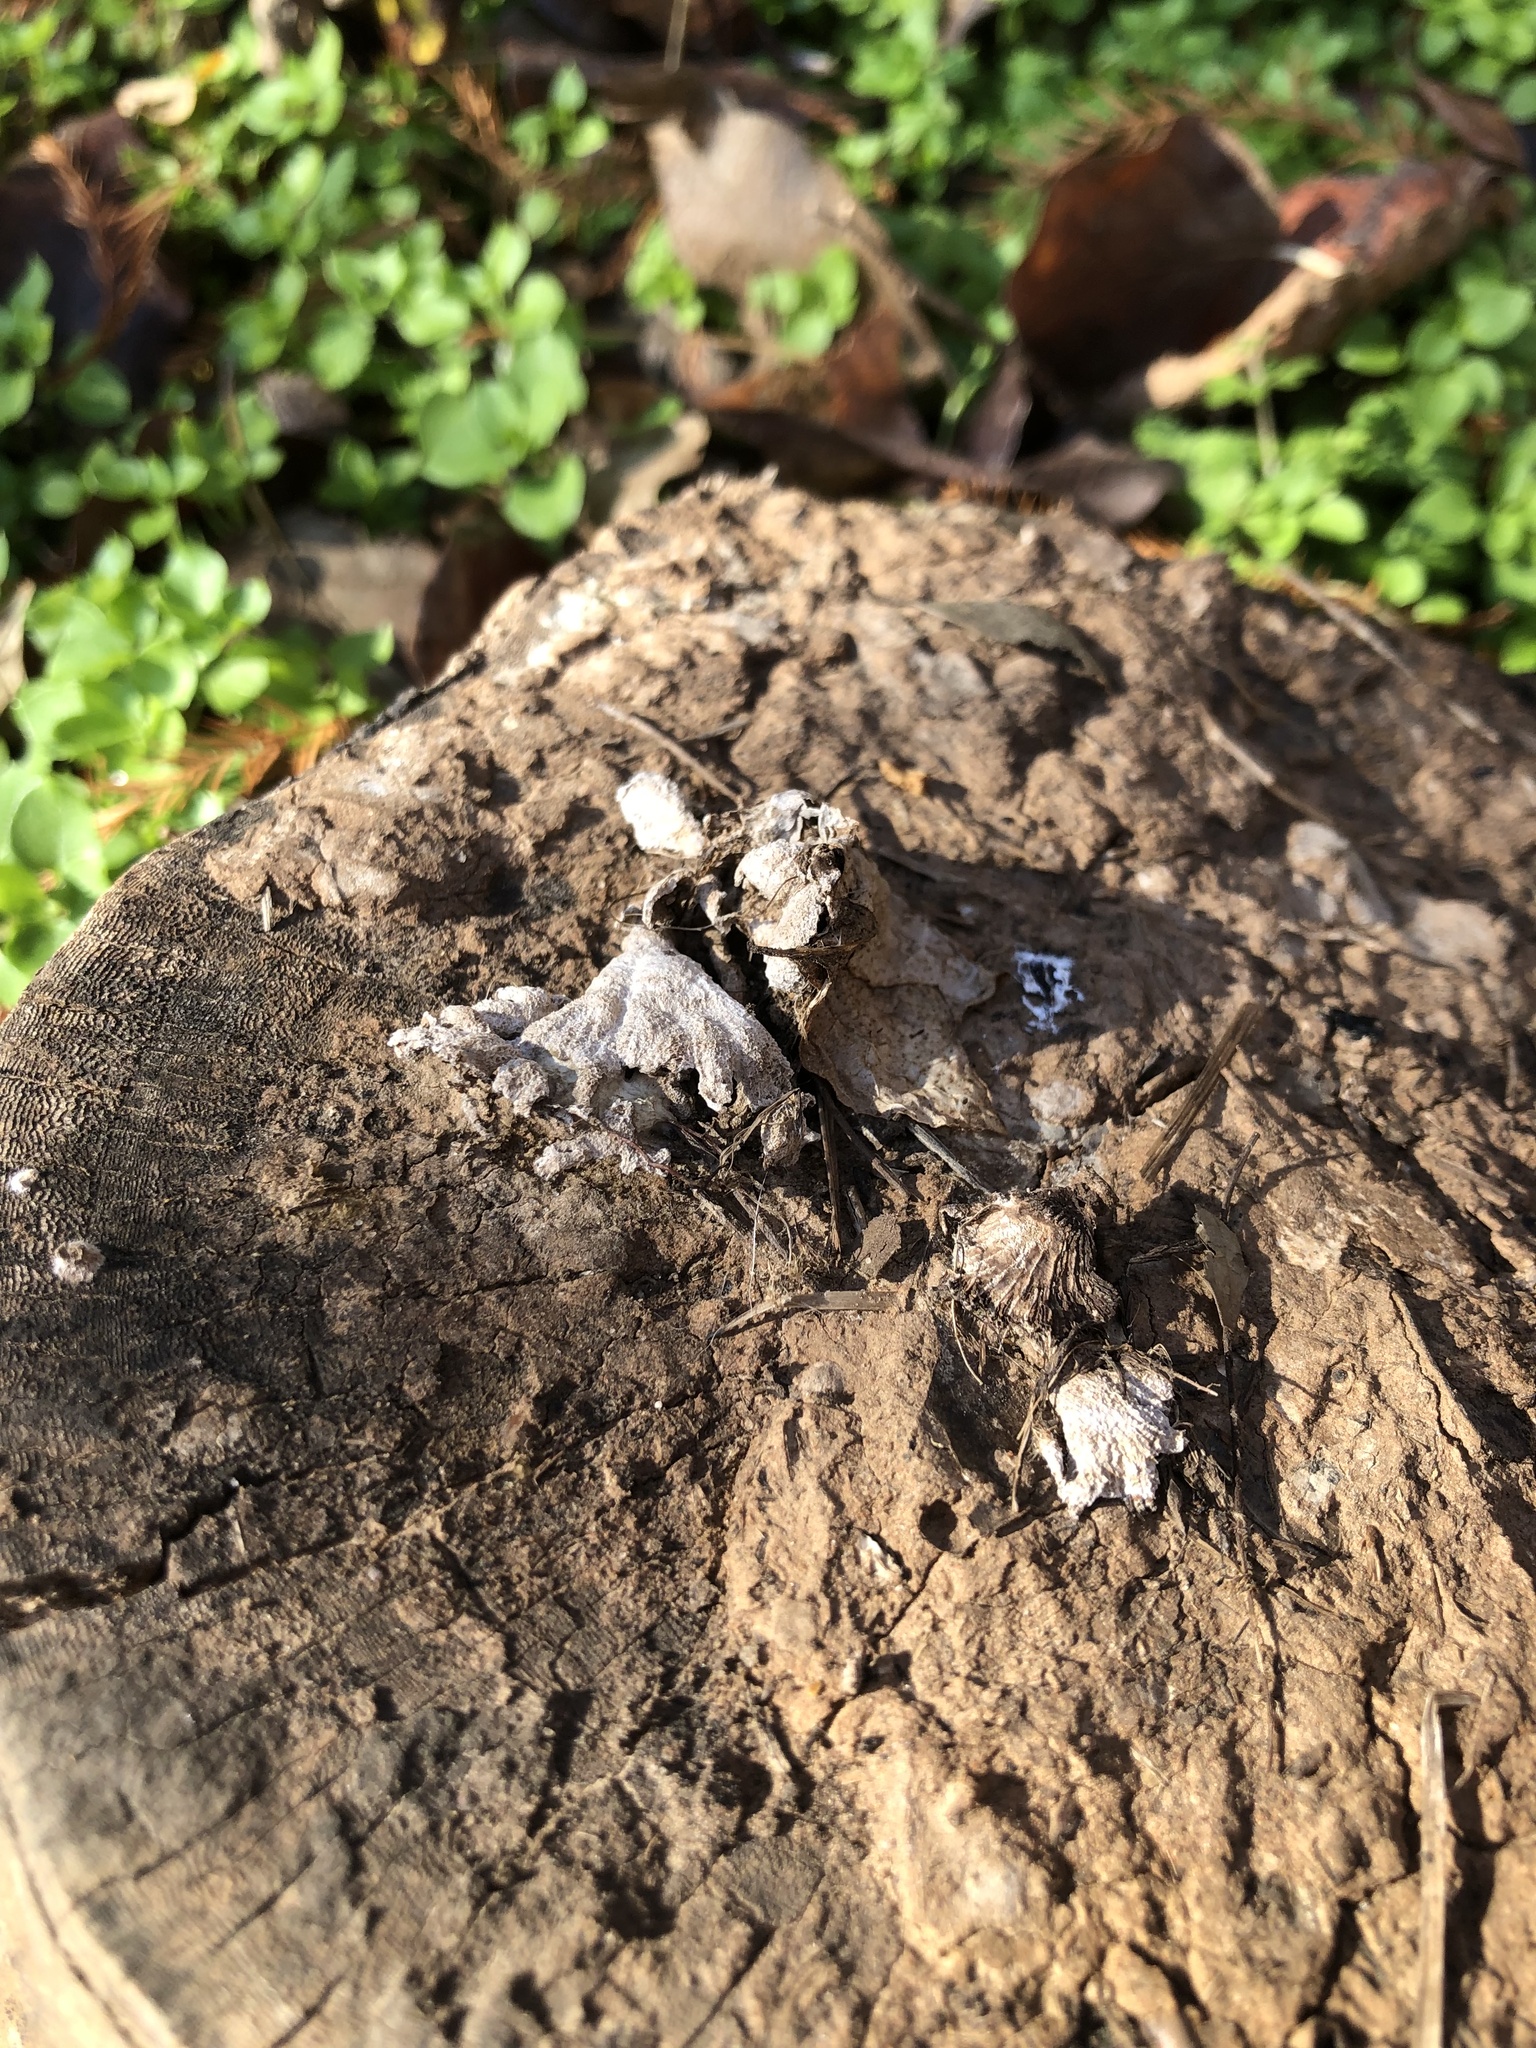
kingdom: Fungi
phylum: Basidiomycota
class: Agaricomycetes
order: Agaricales
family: Schizophyllaceae
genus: Schizophyllum
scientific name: Schizophyllum commune
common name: Common porecrust
